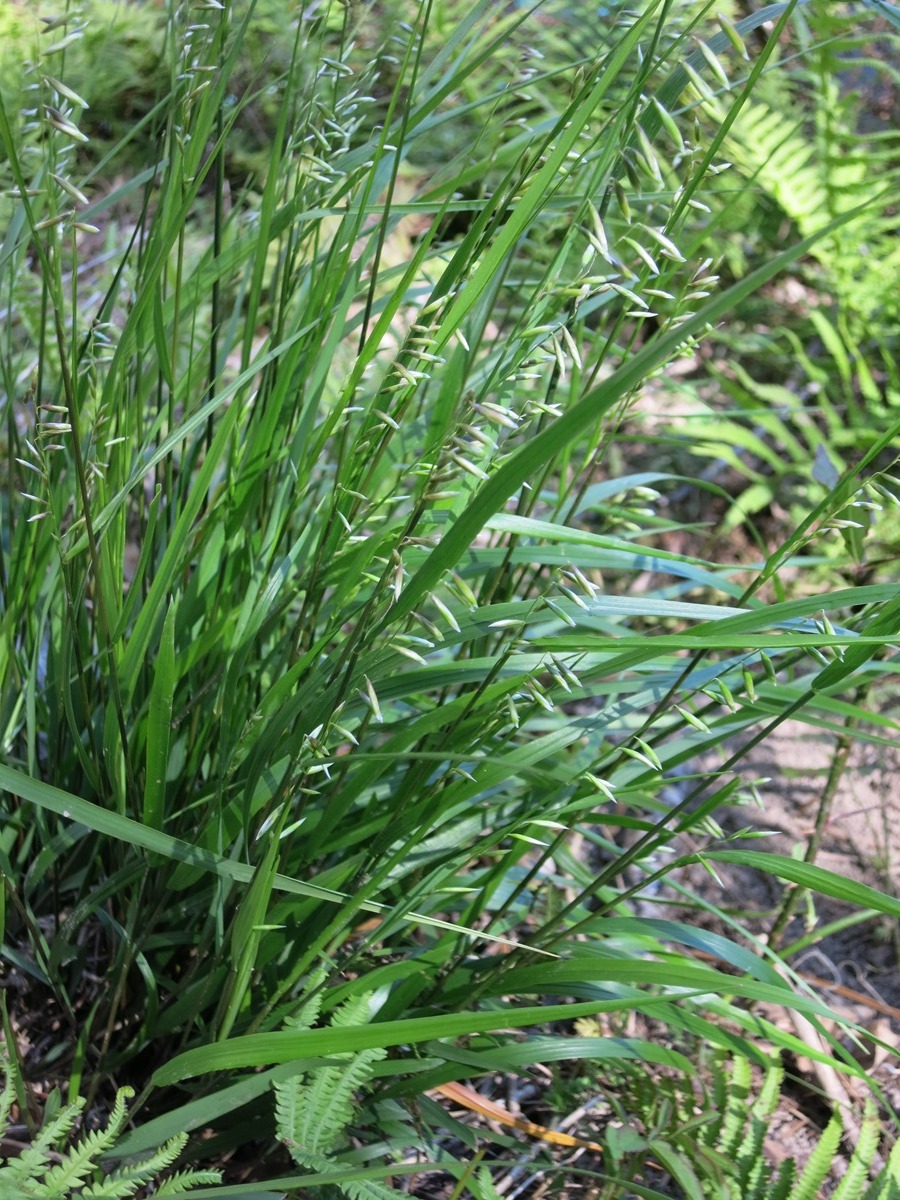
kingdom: Plantae
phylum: Tracheophyta
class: Liliopsida
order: Poales
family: Poaceae
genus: Melica
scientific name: Melica mutica
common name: Two-flower melic
